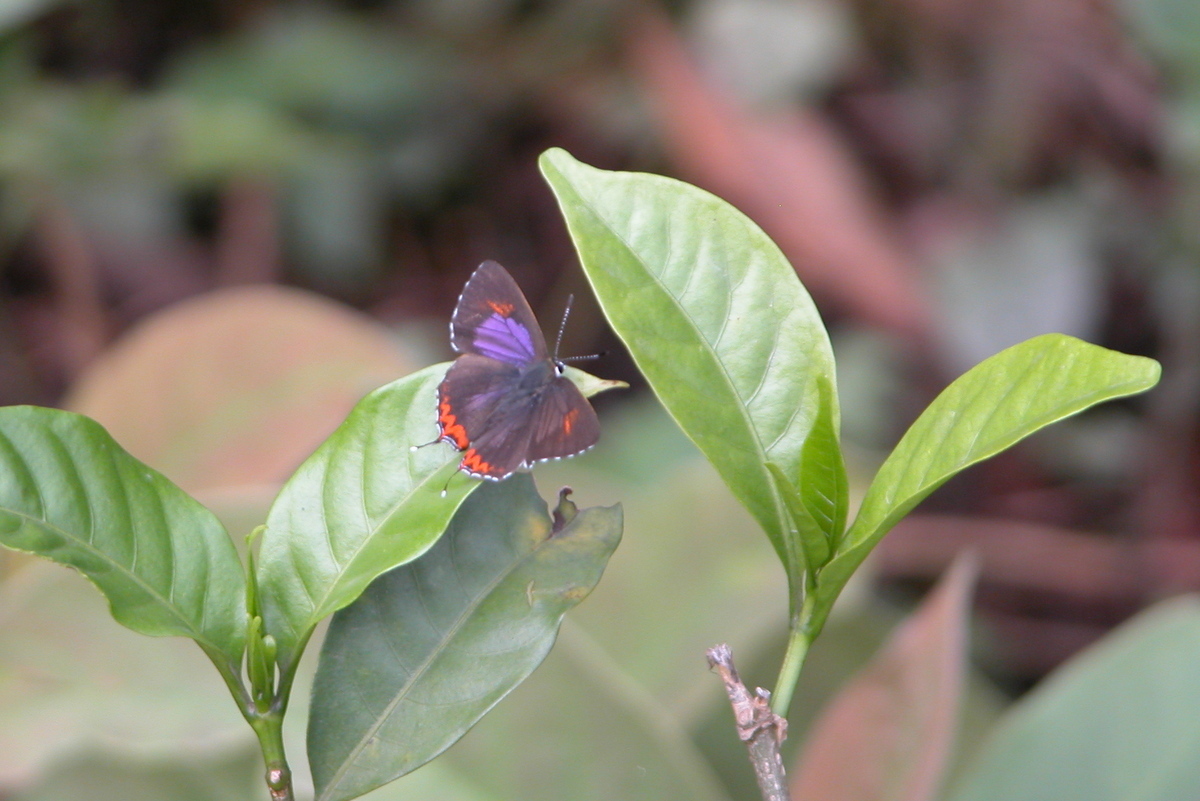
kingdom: Animalia
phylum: Arthropoda
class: Insecta
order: Lepidoptera
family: Lycaenidae
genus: Heliophorus
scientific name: Heliophorus epicles
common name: Purple sapphire
